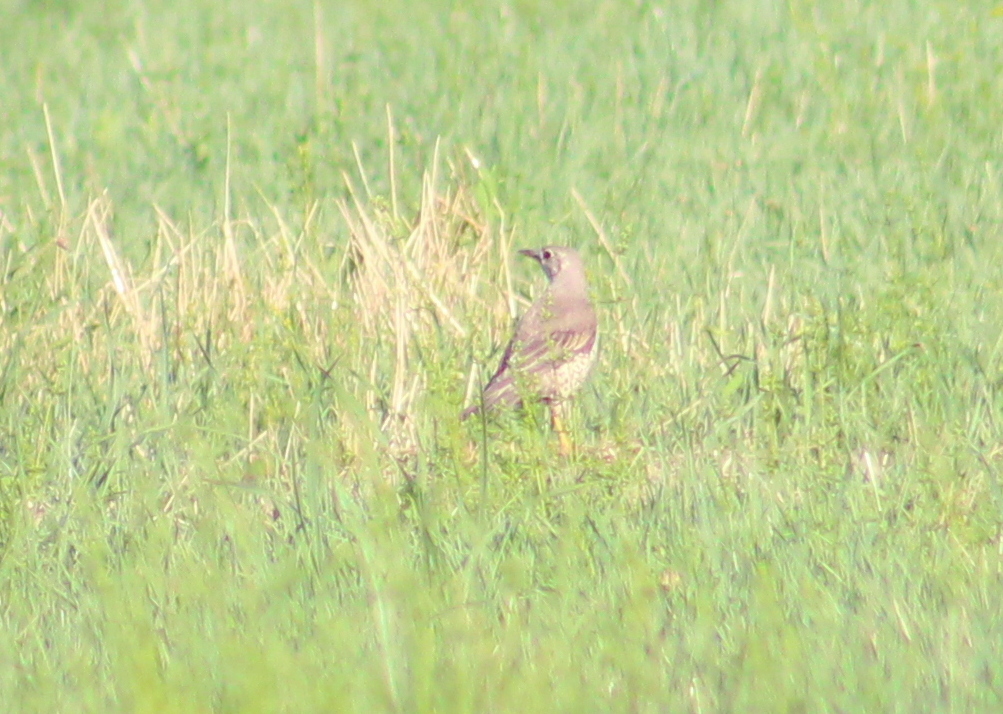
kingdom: Animalia
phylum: Chordata
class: Aves
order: Passeriformes
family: Turdidae
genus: Turdus
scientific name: Turdus viscivorus
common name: Mistle thrush
